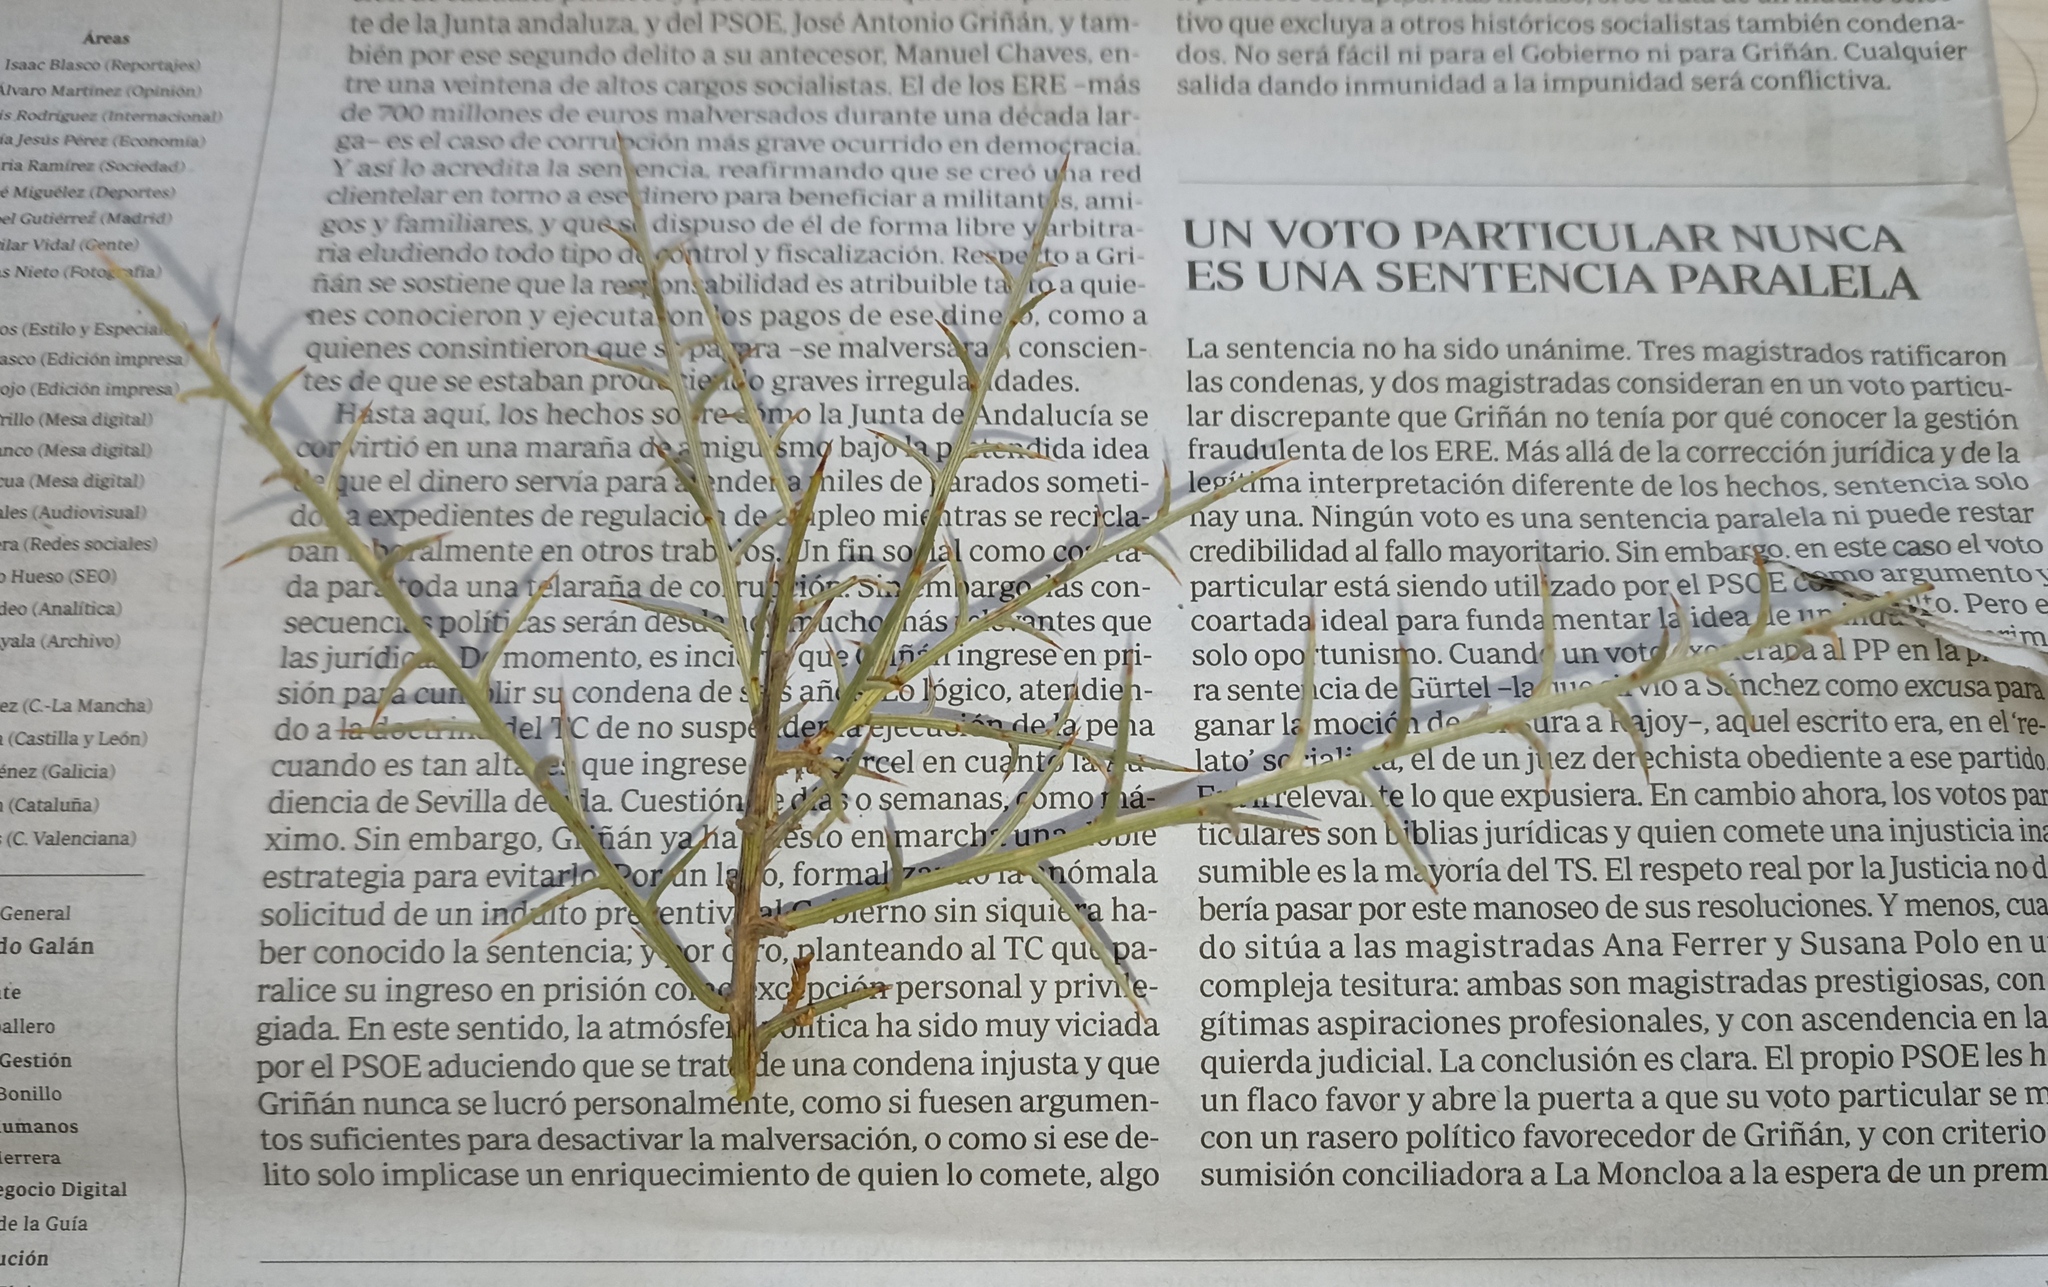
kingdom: Plantae
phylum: Tracheophyta
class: Magnoliopsida
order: Fabales
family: Fabaceae
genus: Genista
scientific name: Genista scorpius
